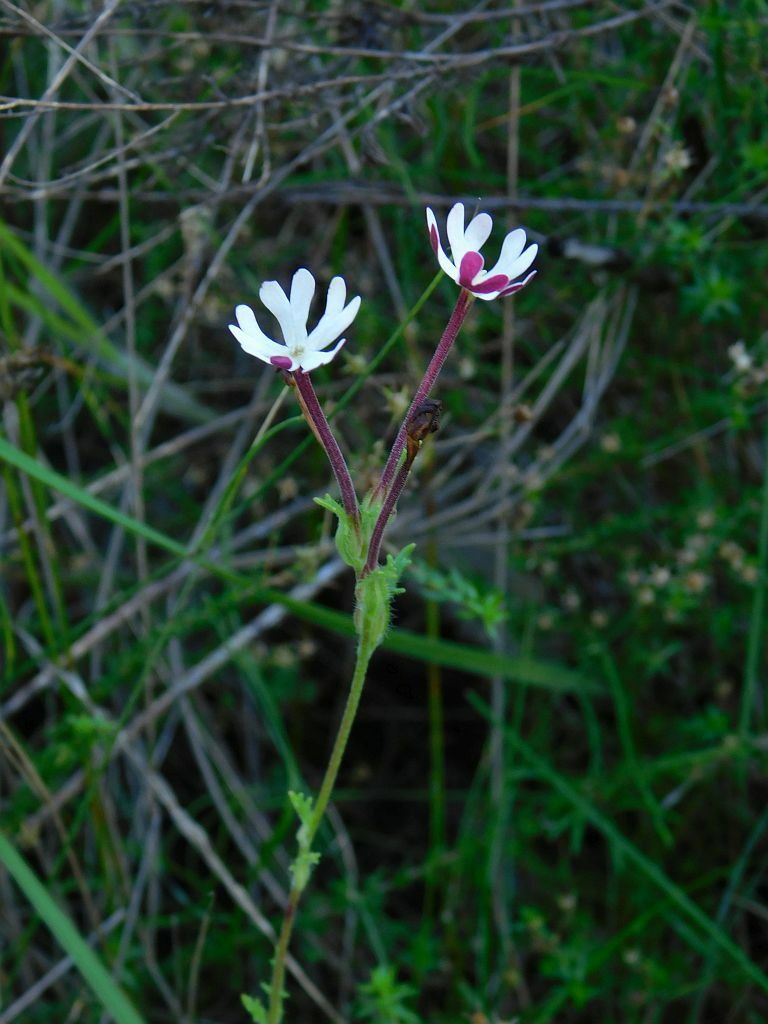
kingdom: Plantae
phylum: Tracheophyta
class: Magnoliopsida
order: Lamiales
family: Scrophulariaceae
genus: Zaluzianskya
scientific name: Zaluzianskya capensis
